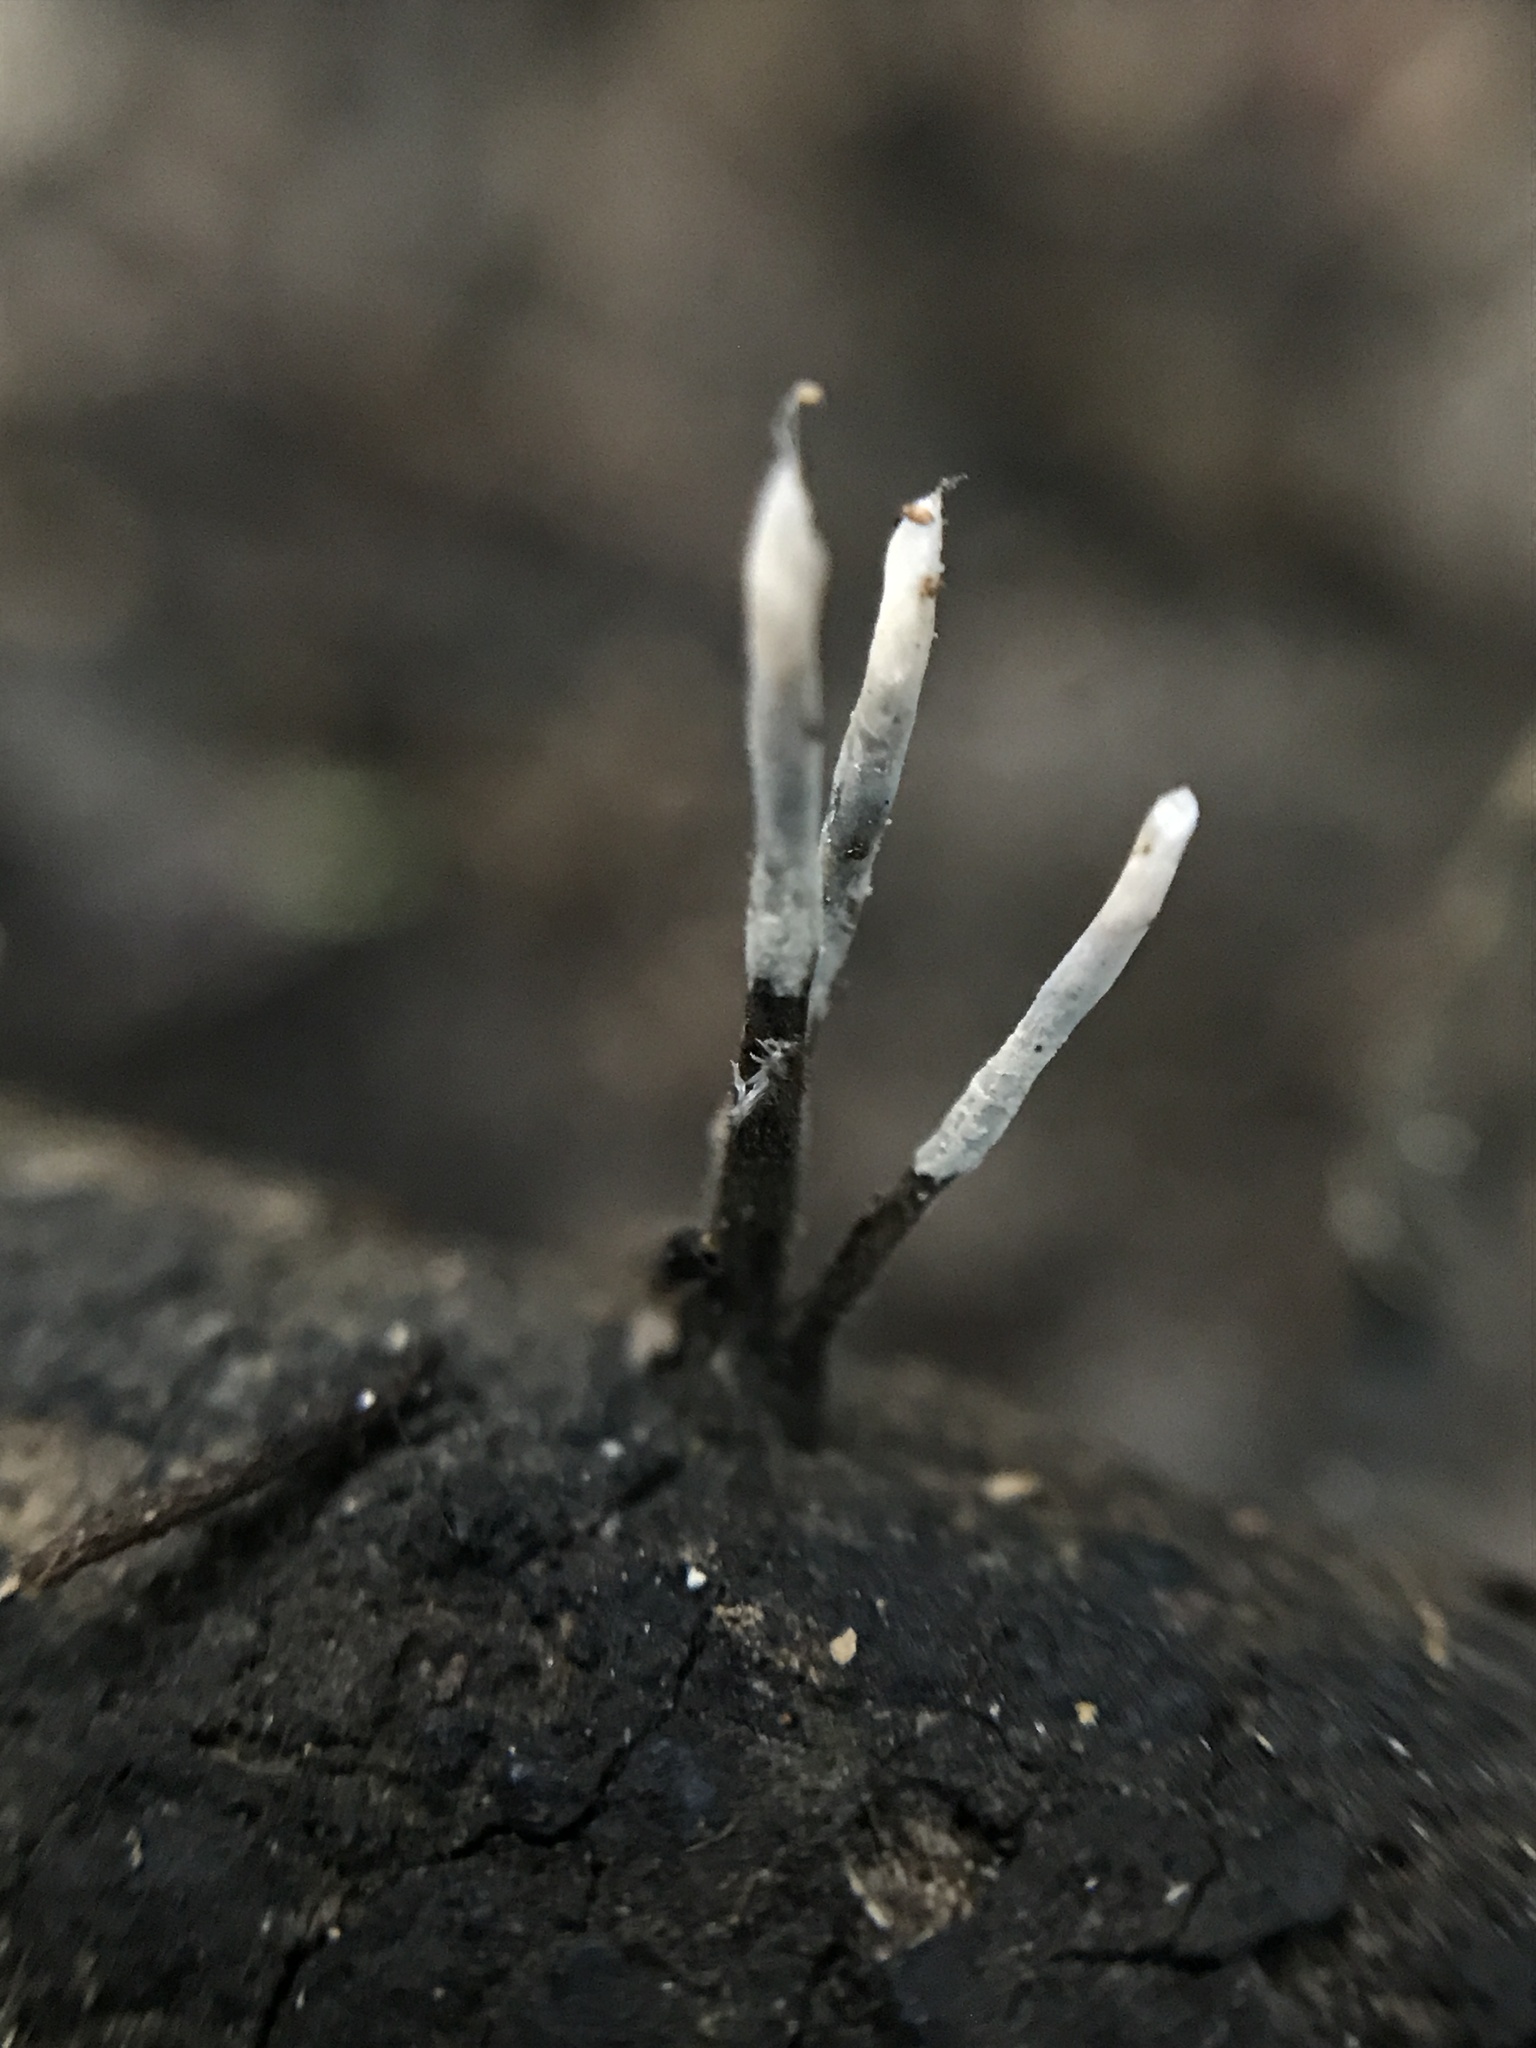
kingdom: Fungi
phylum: Ascomycota
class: Sordariomycetes
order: Xylariales
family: Xylariaceae
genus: Xylaria
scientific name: Xylaria filiformis
